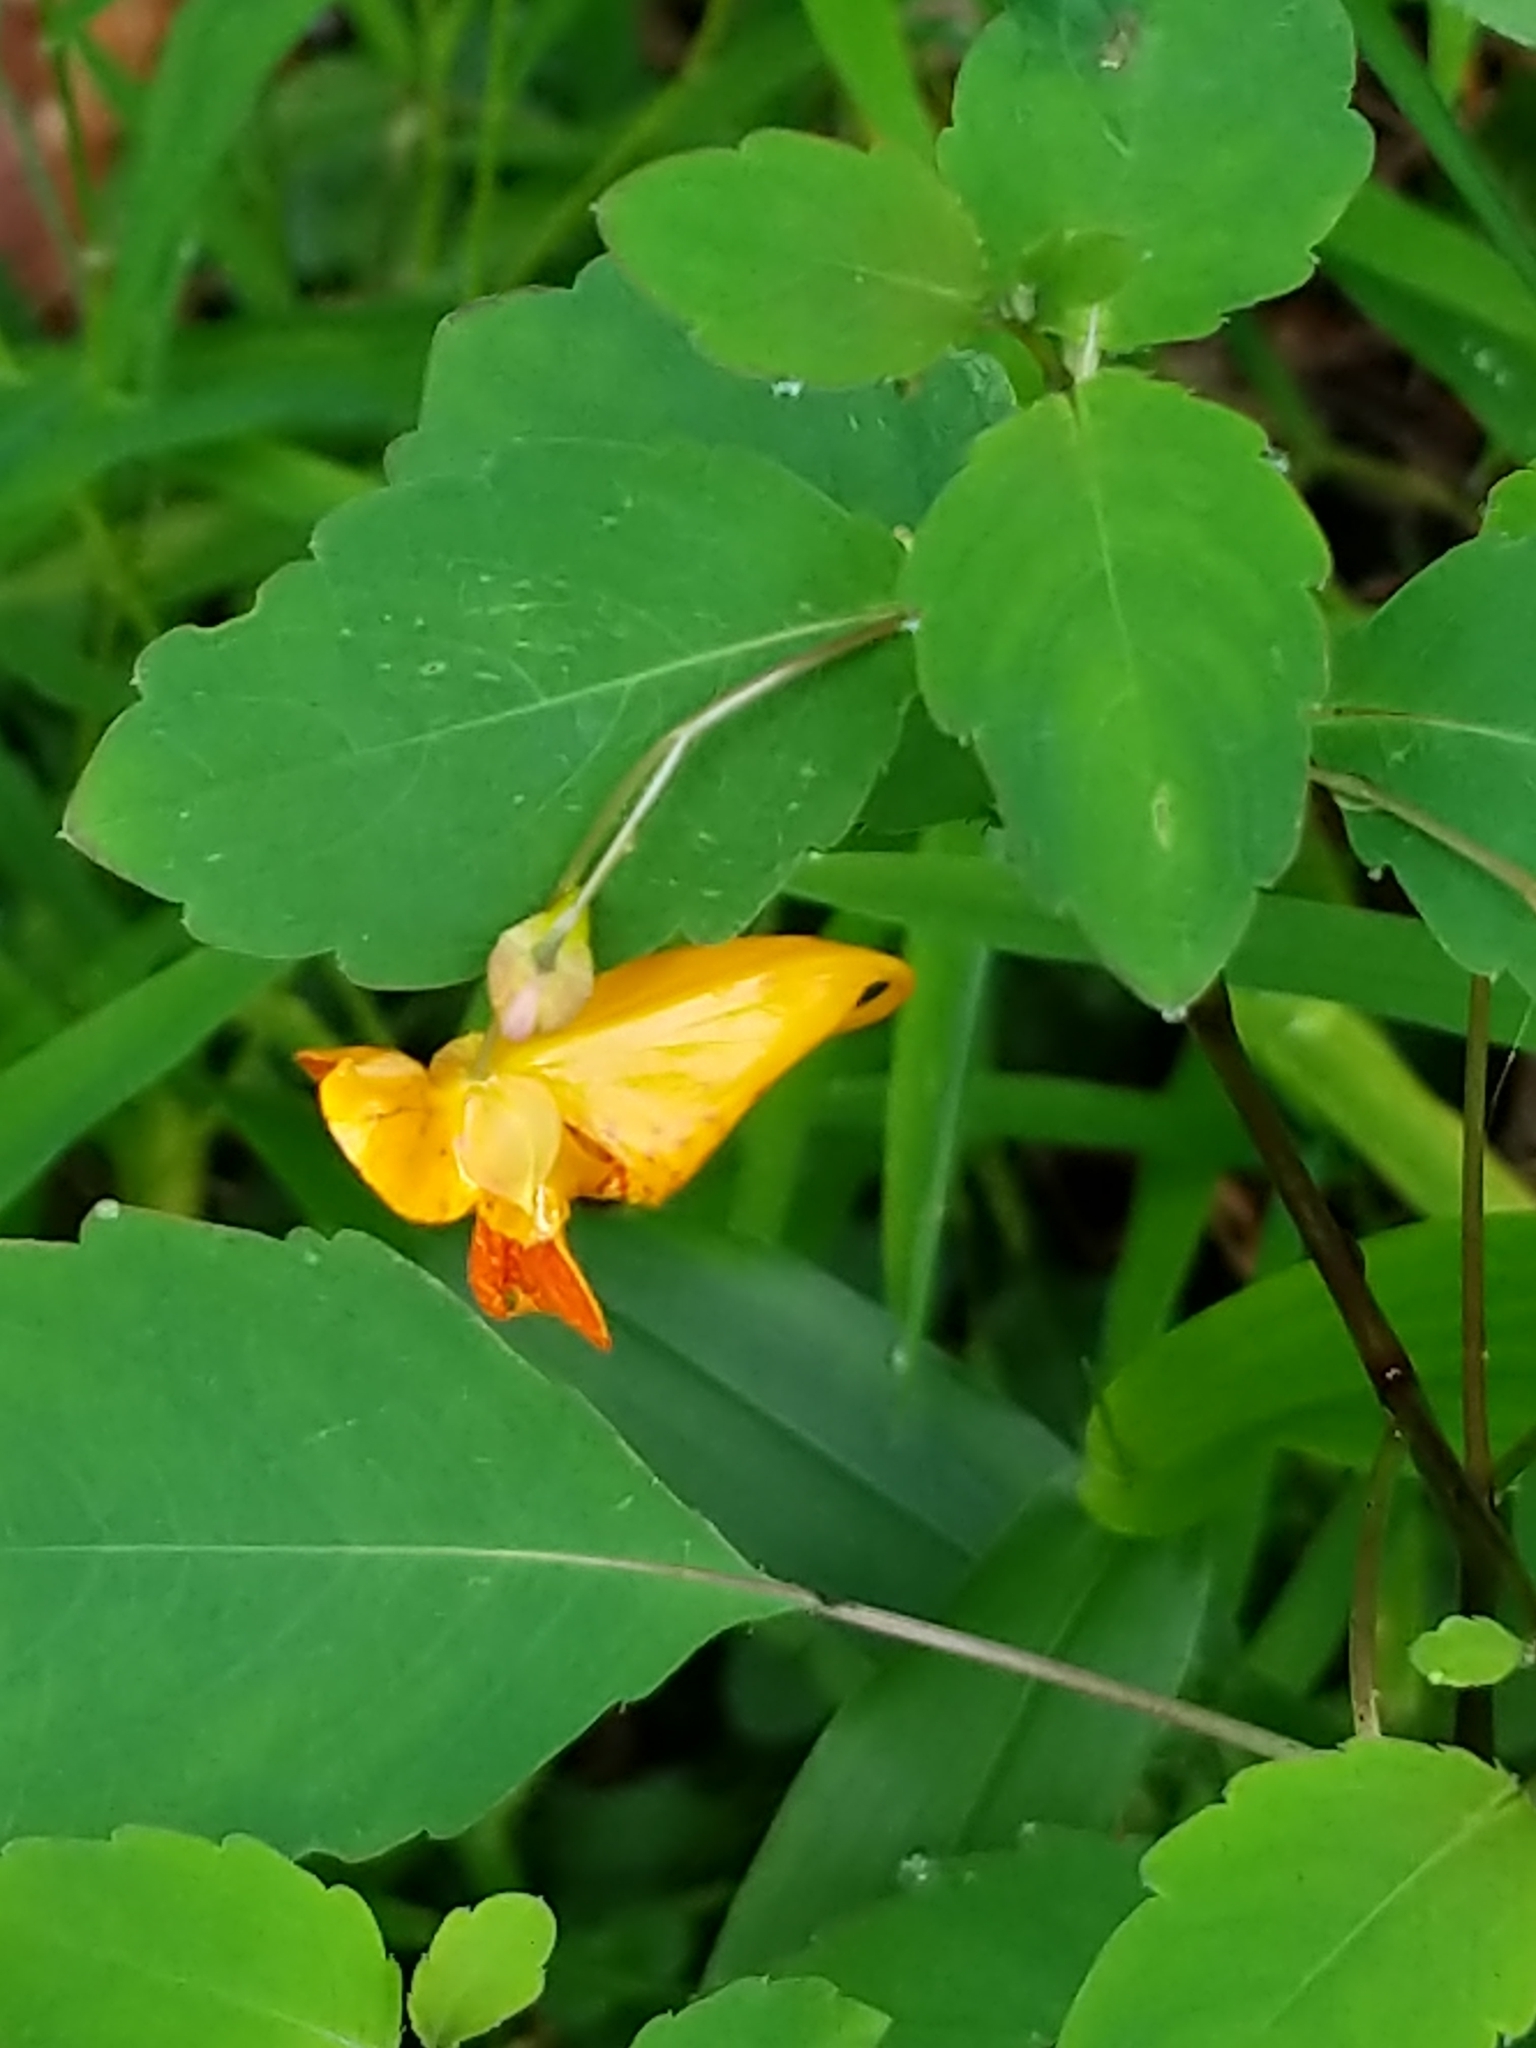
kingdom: Plantae
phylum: Tracheophyta
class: Magnoliopsida
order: Ericales
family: Balsaminaceae
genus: Impatiens
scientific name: Impatiens capensis
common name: Orange balsam
